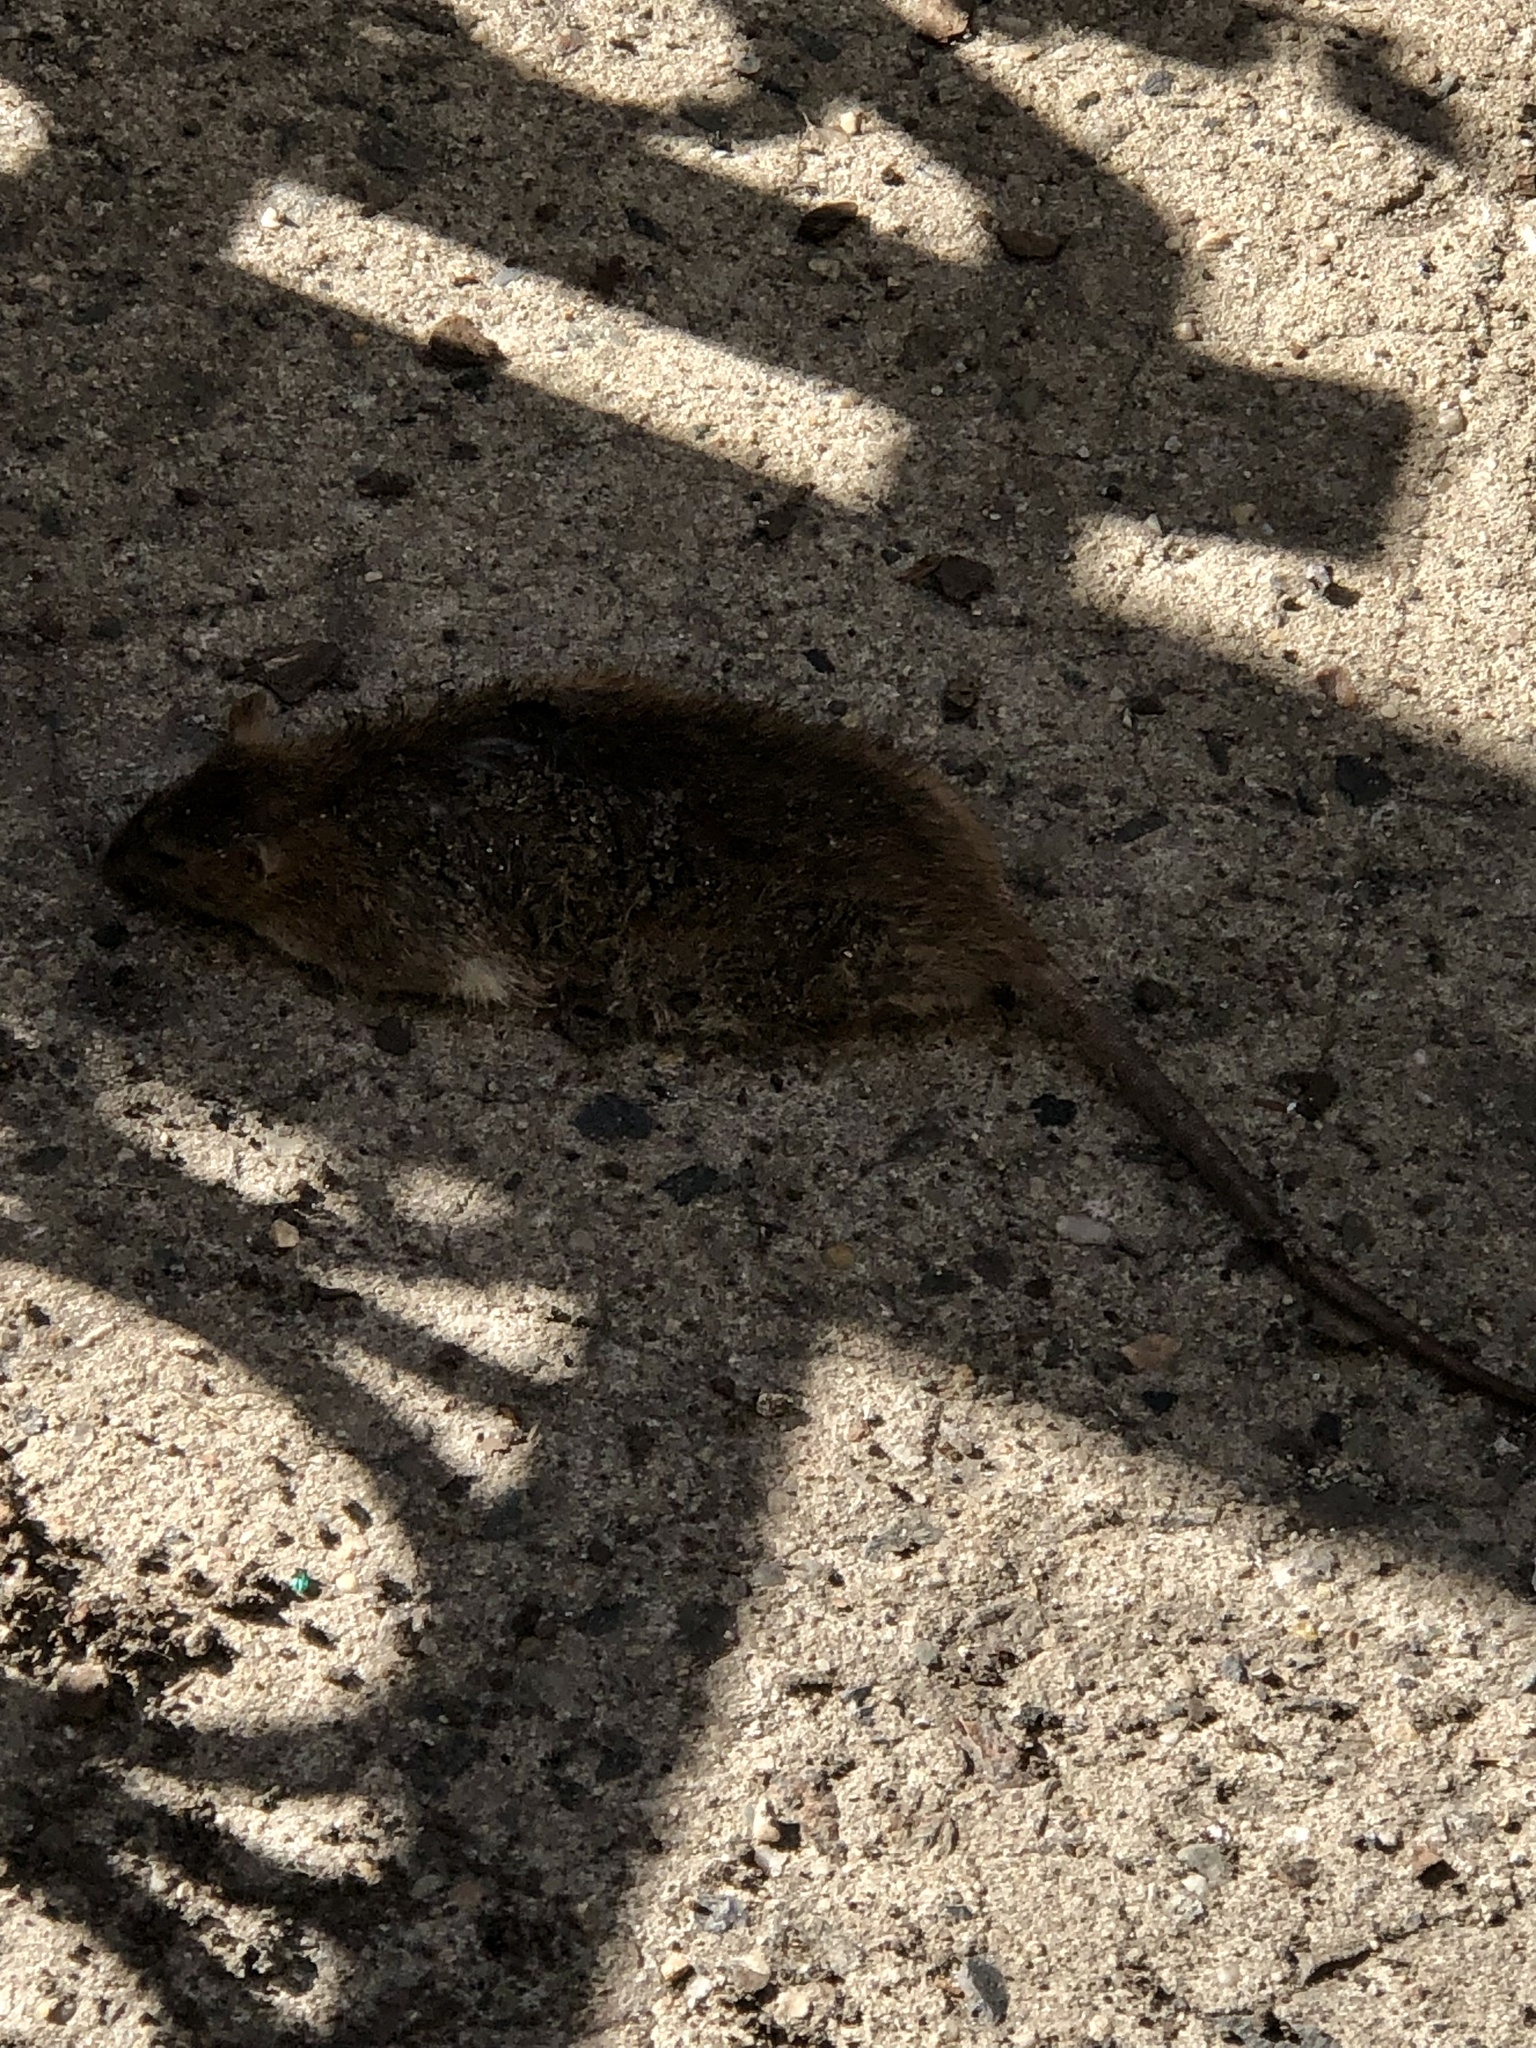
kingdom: Animalia
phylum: Chordata
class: Mammalia
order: Rodentia
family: Muridae
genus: Rattus
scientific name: Rattus norvegicus
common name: Brown rat
